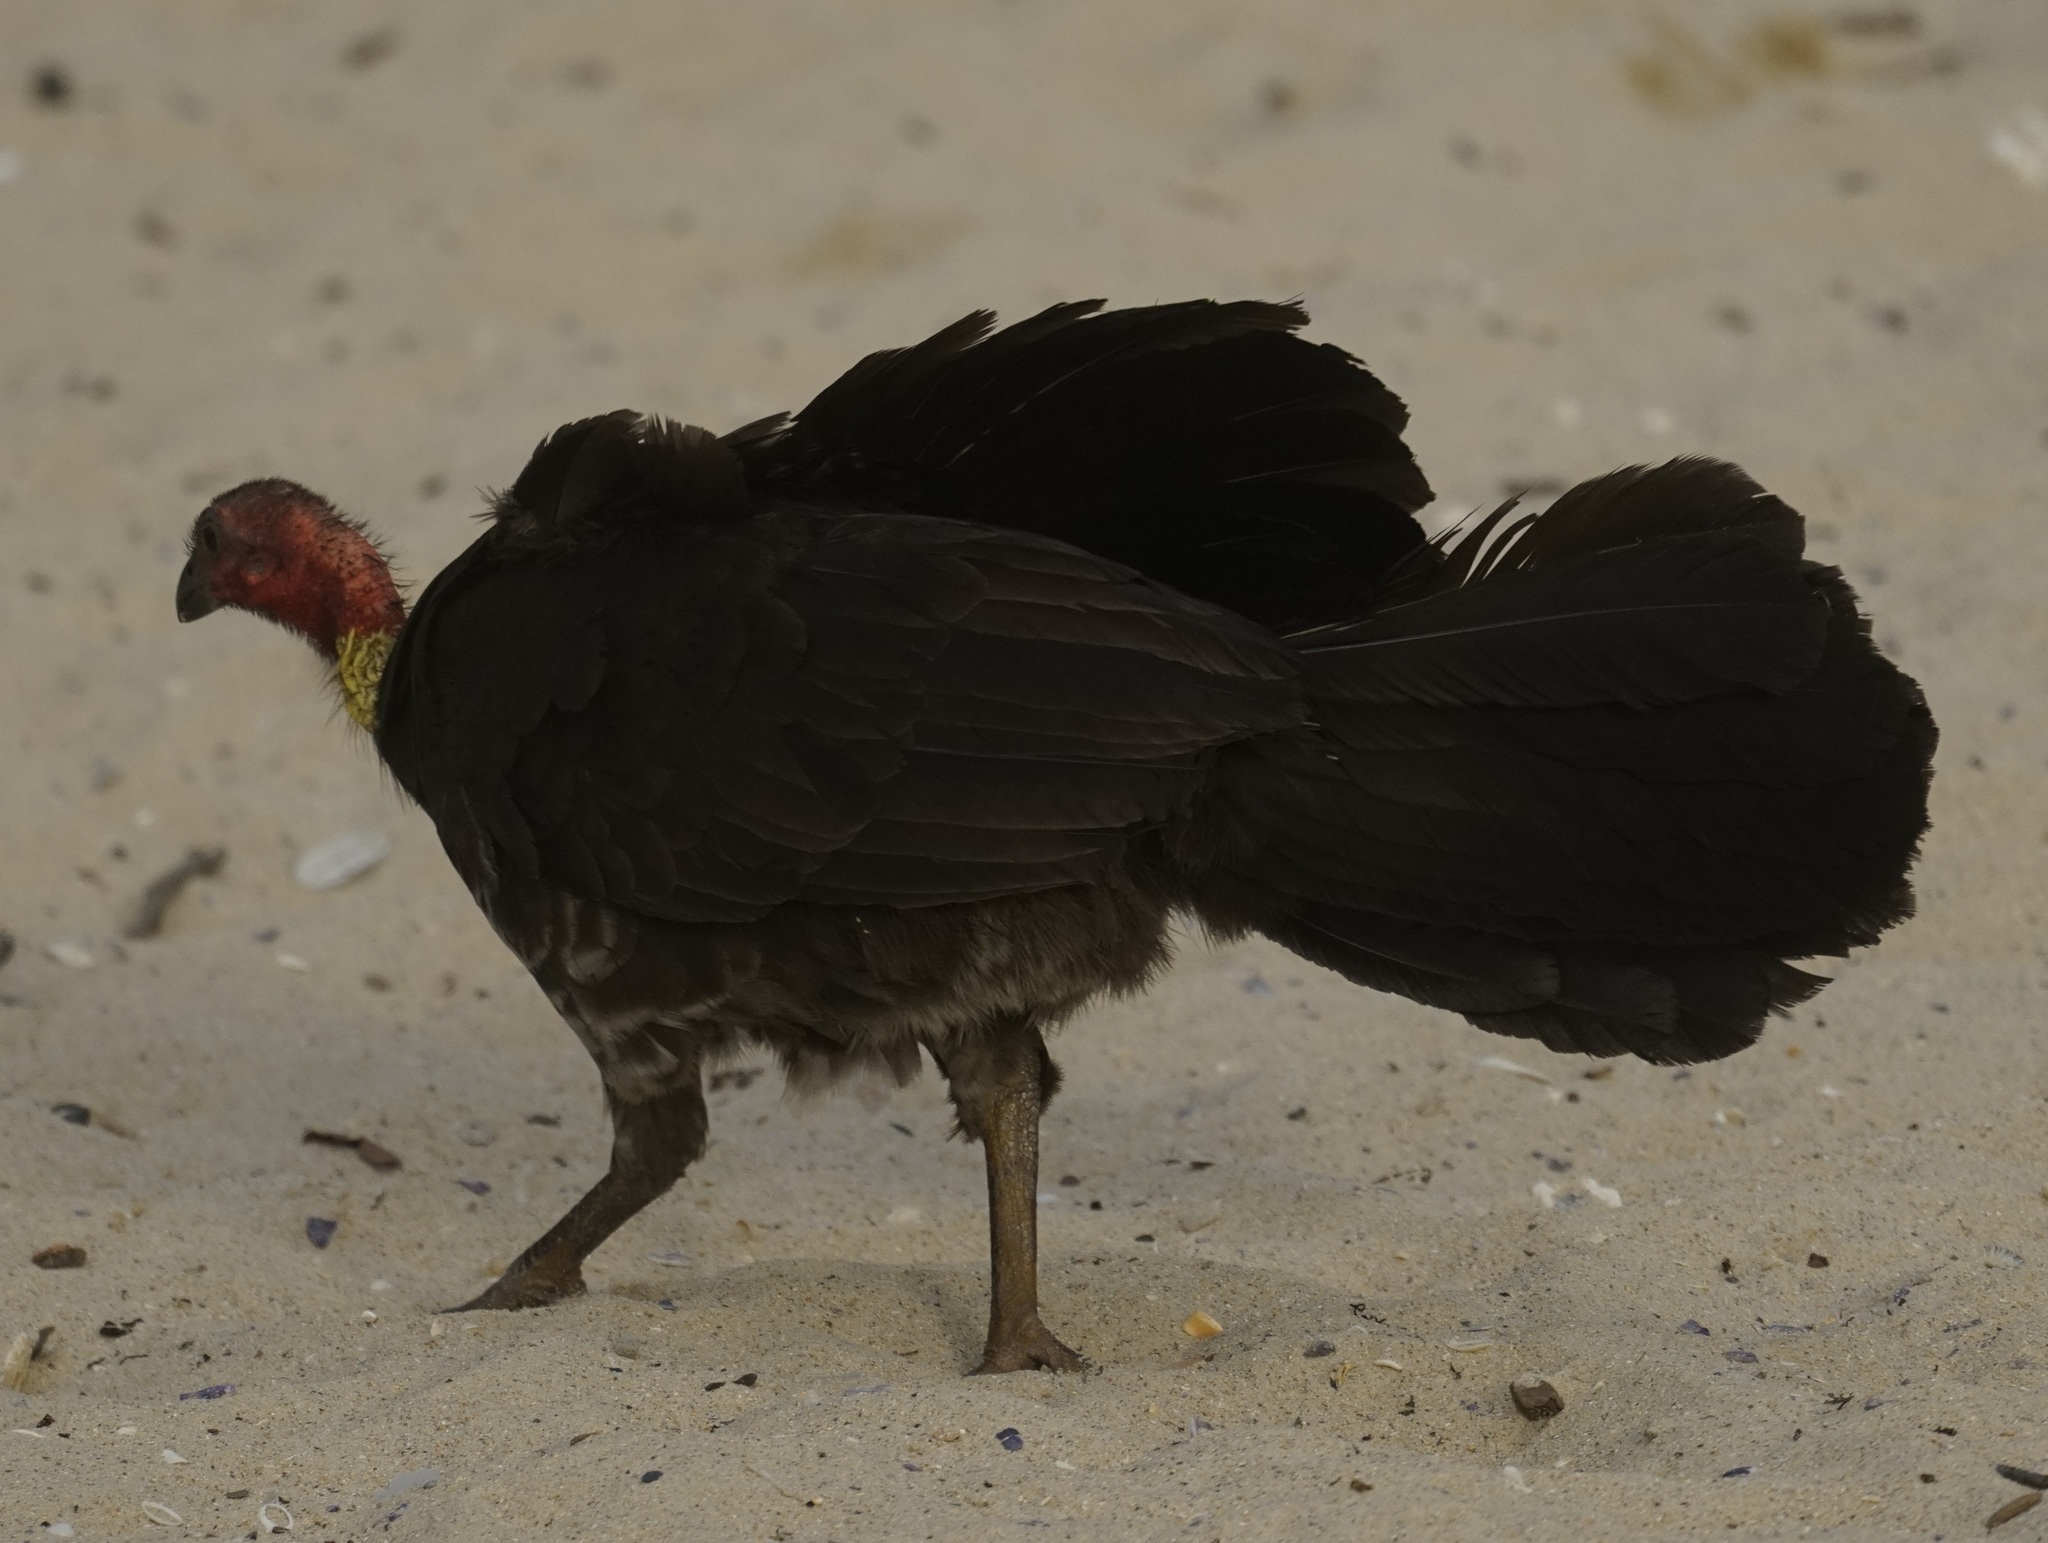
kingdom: Animalia
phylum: Chordata
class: Aves
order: Galliformes
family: Megapodiidae
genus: Alectura
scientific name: Alectura lathami
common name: Australian brushturkey
